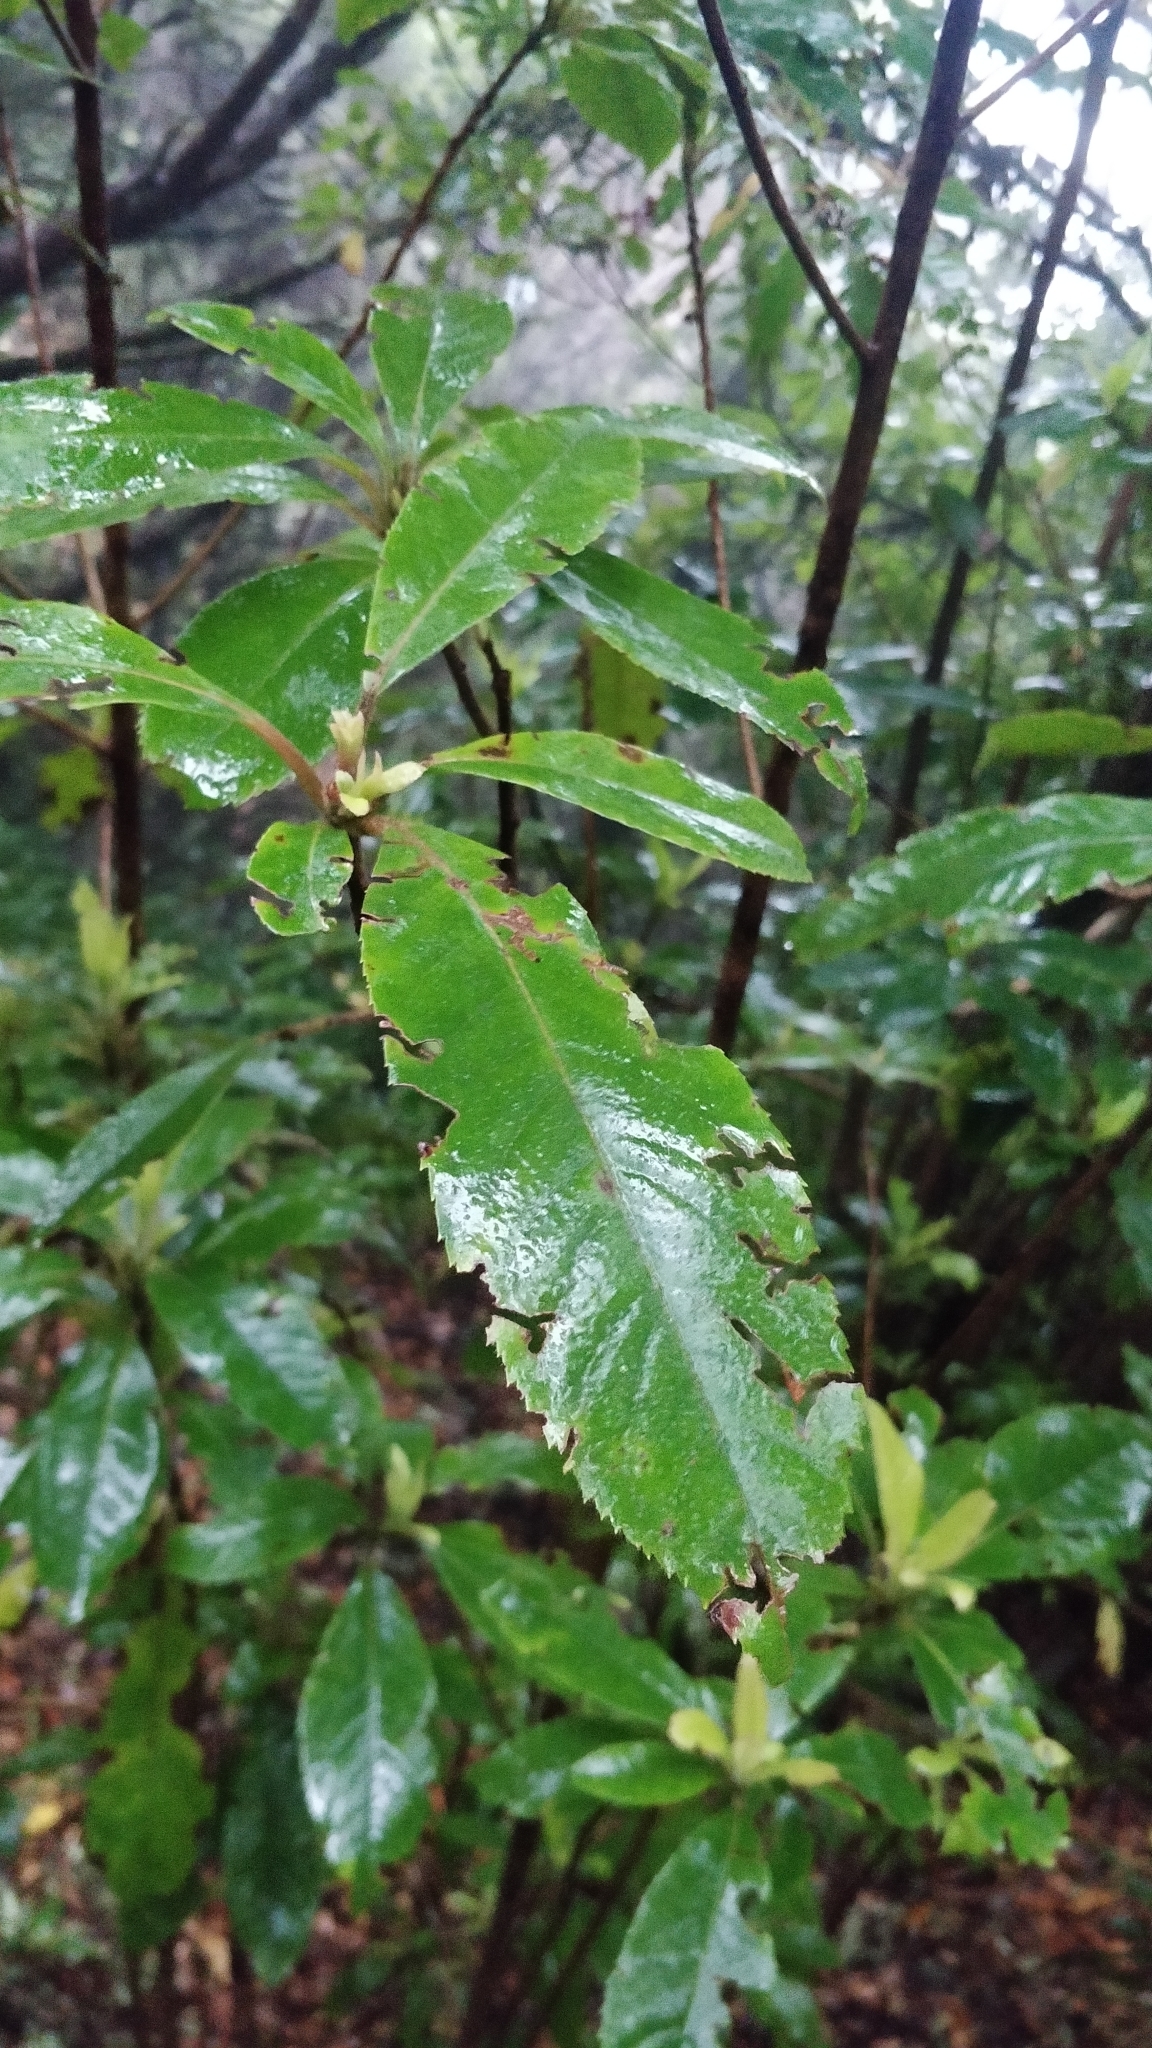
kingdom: Plantae
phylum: Tracheophyta
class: Magnoliopsida
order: Ericales
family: Clethraceae
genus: Clethra
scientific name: Clethra arborea
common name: Lily-of-the-valley-tree
